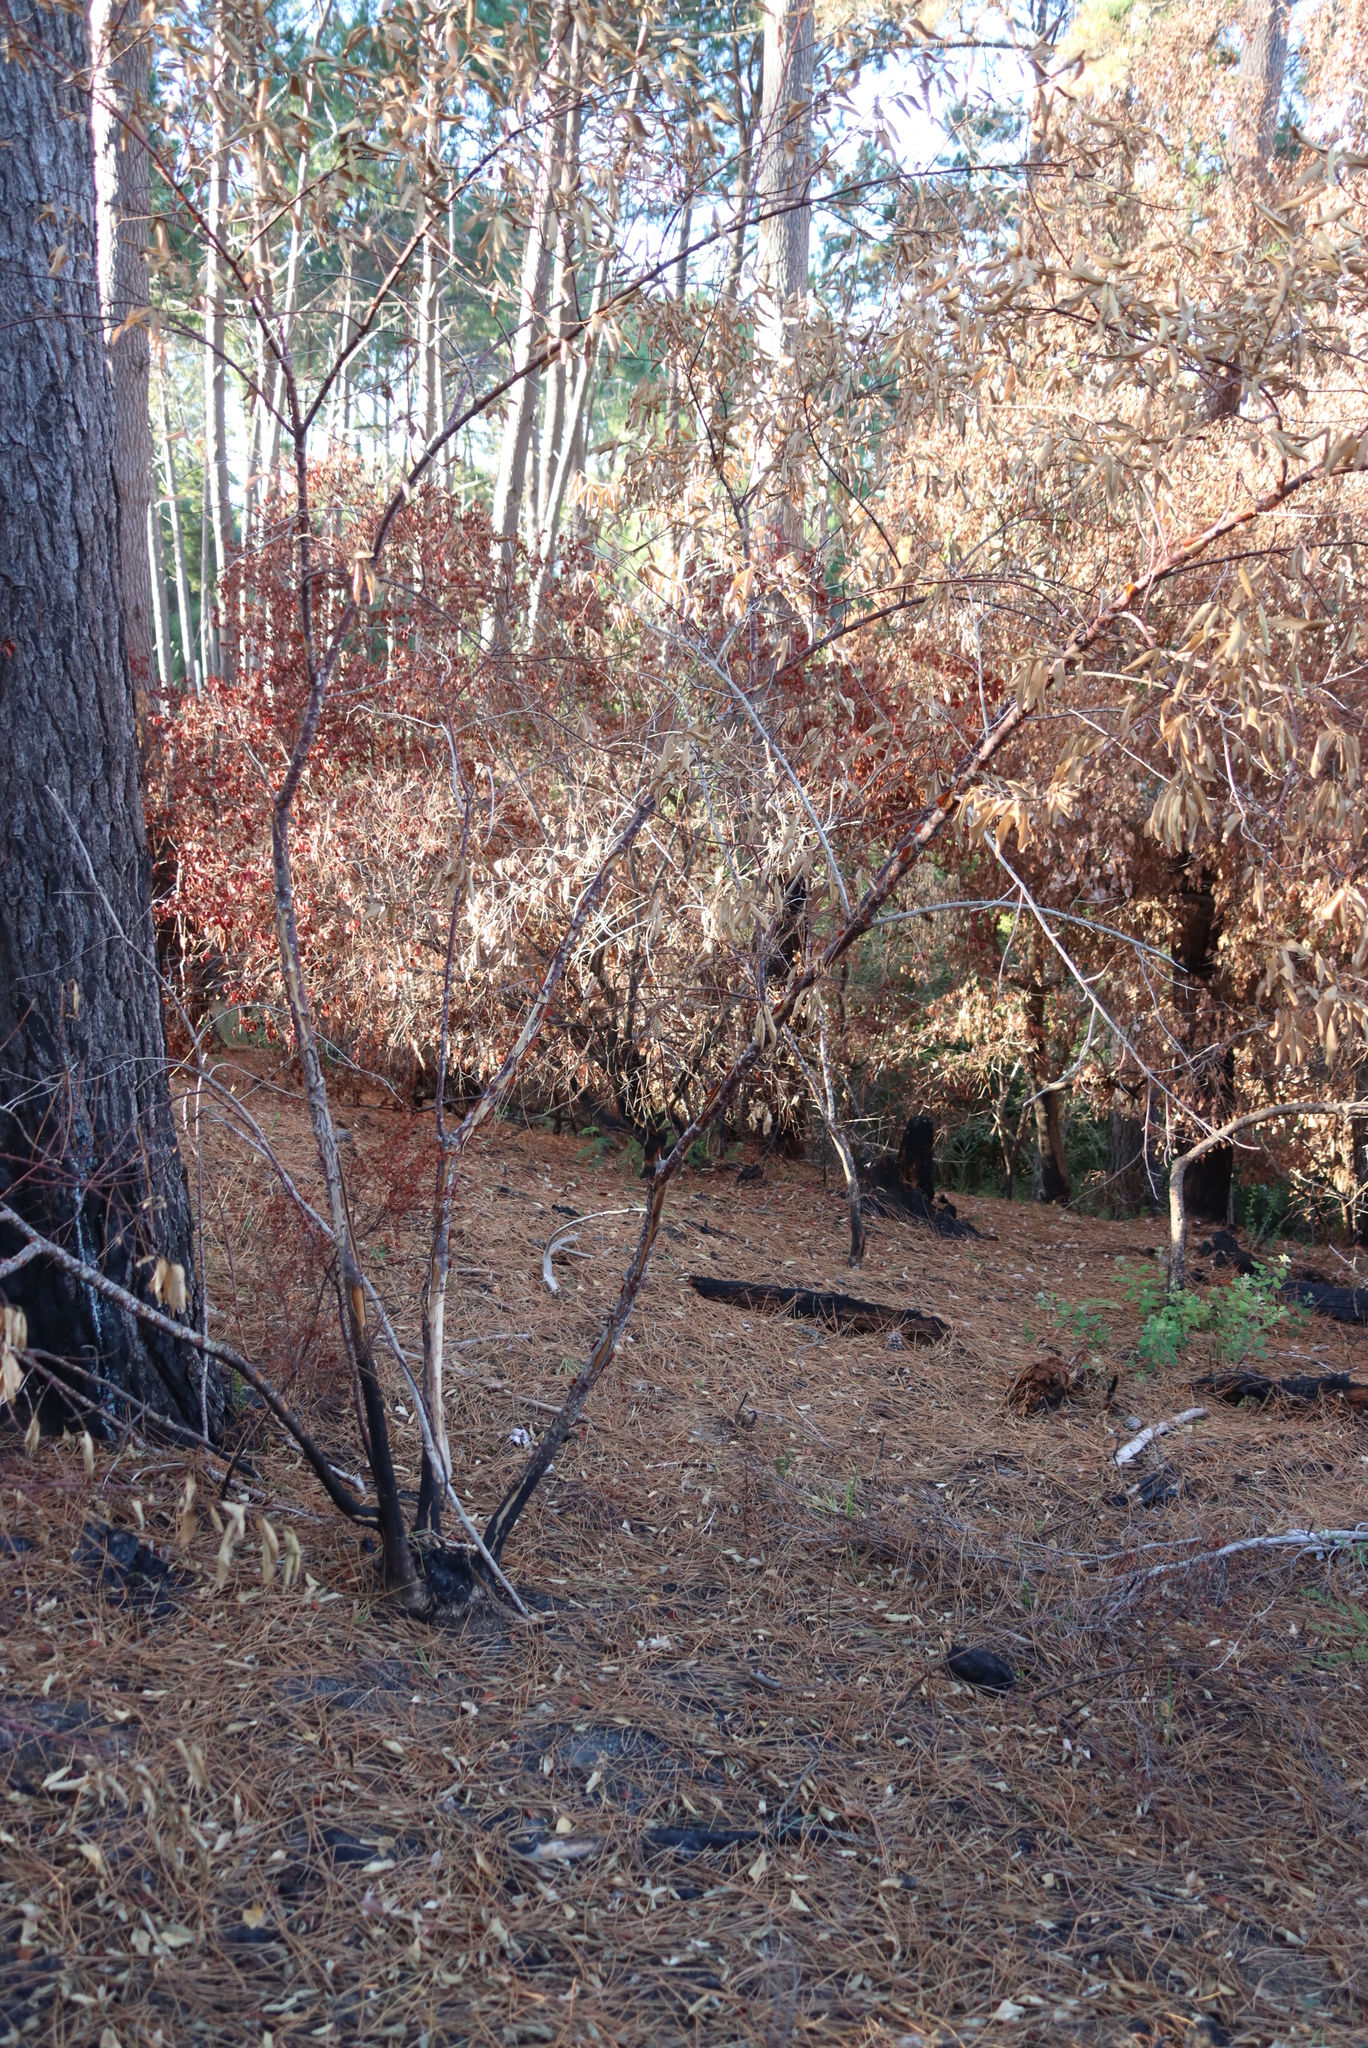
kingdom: Plantae
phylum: Tracheophyta
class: Magnoliopsida
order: Malpighiales
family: Achariaceae
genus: Kiggelaria
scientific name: Kiggelaria africana
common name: Wild peach
